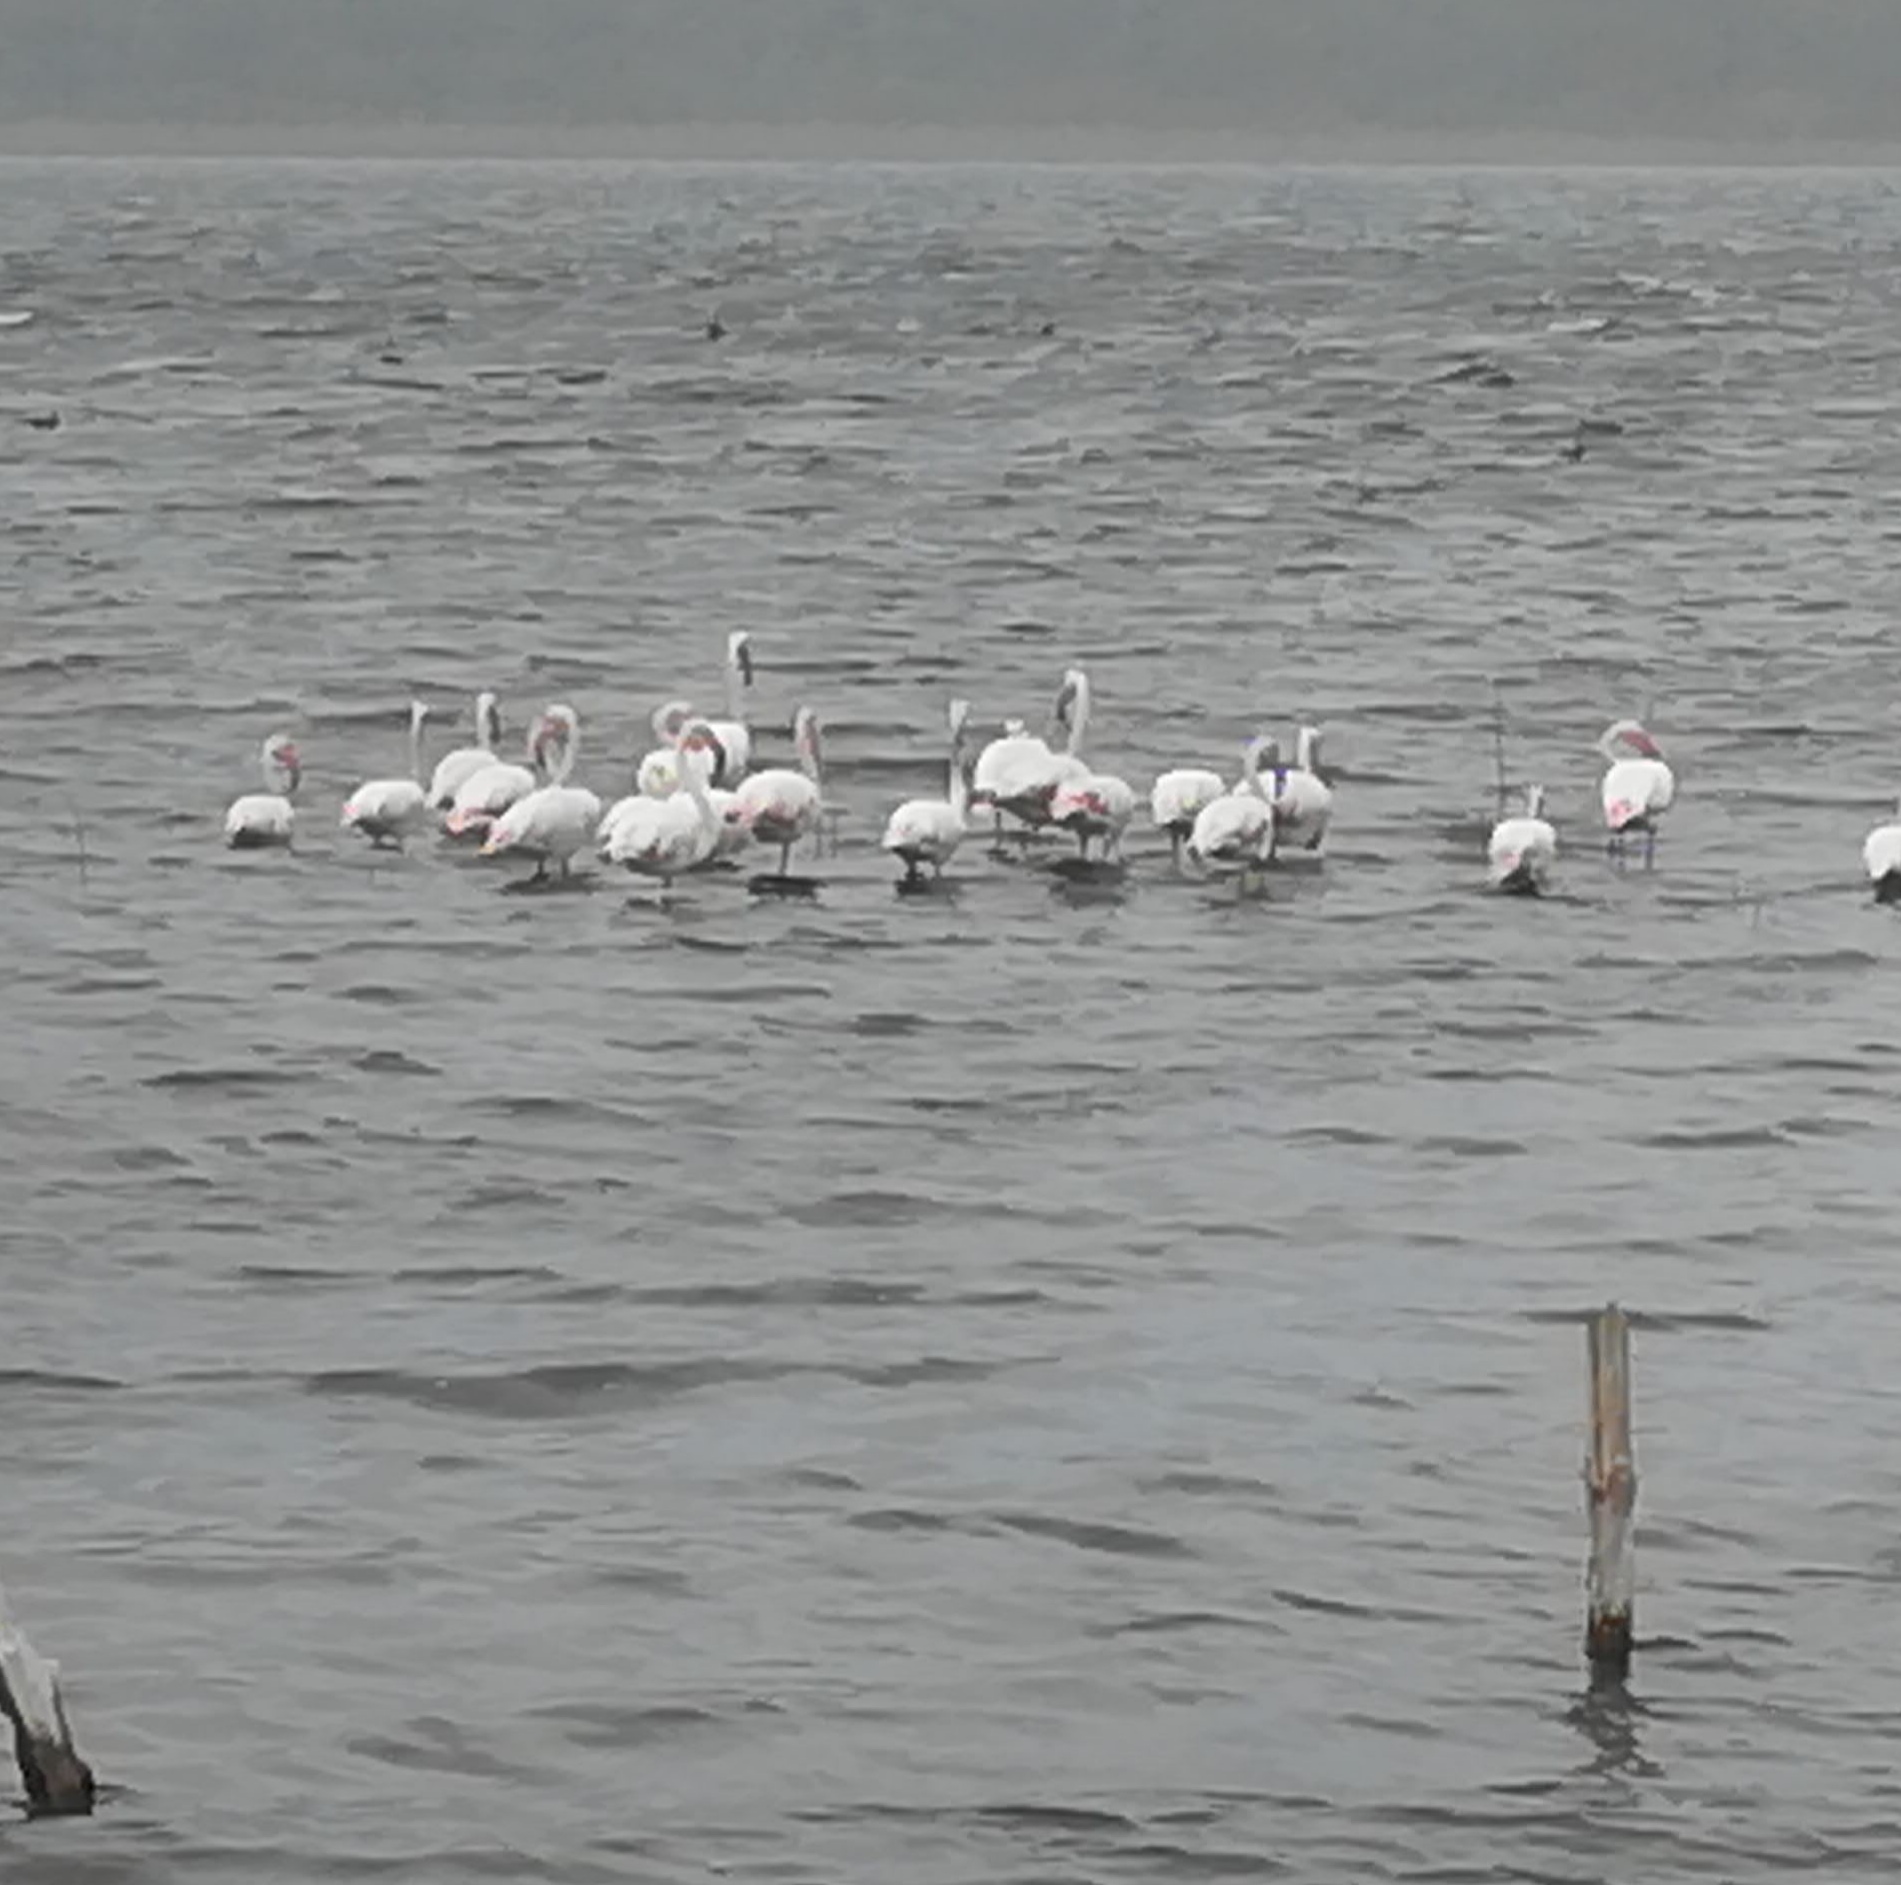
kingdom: Animalia
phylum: Chordata
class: Aves
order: Phoenicopteriformes
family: Phoenicopteridae
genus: Phoenicopterus
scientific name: Phoenicopterus roseus
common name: Greater flamingo
